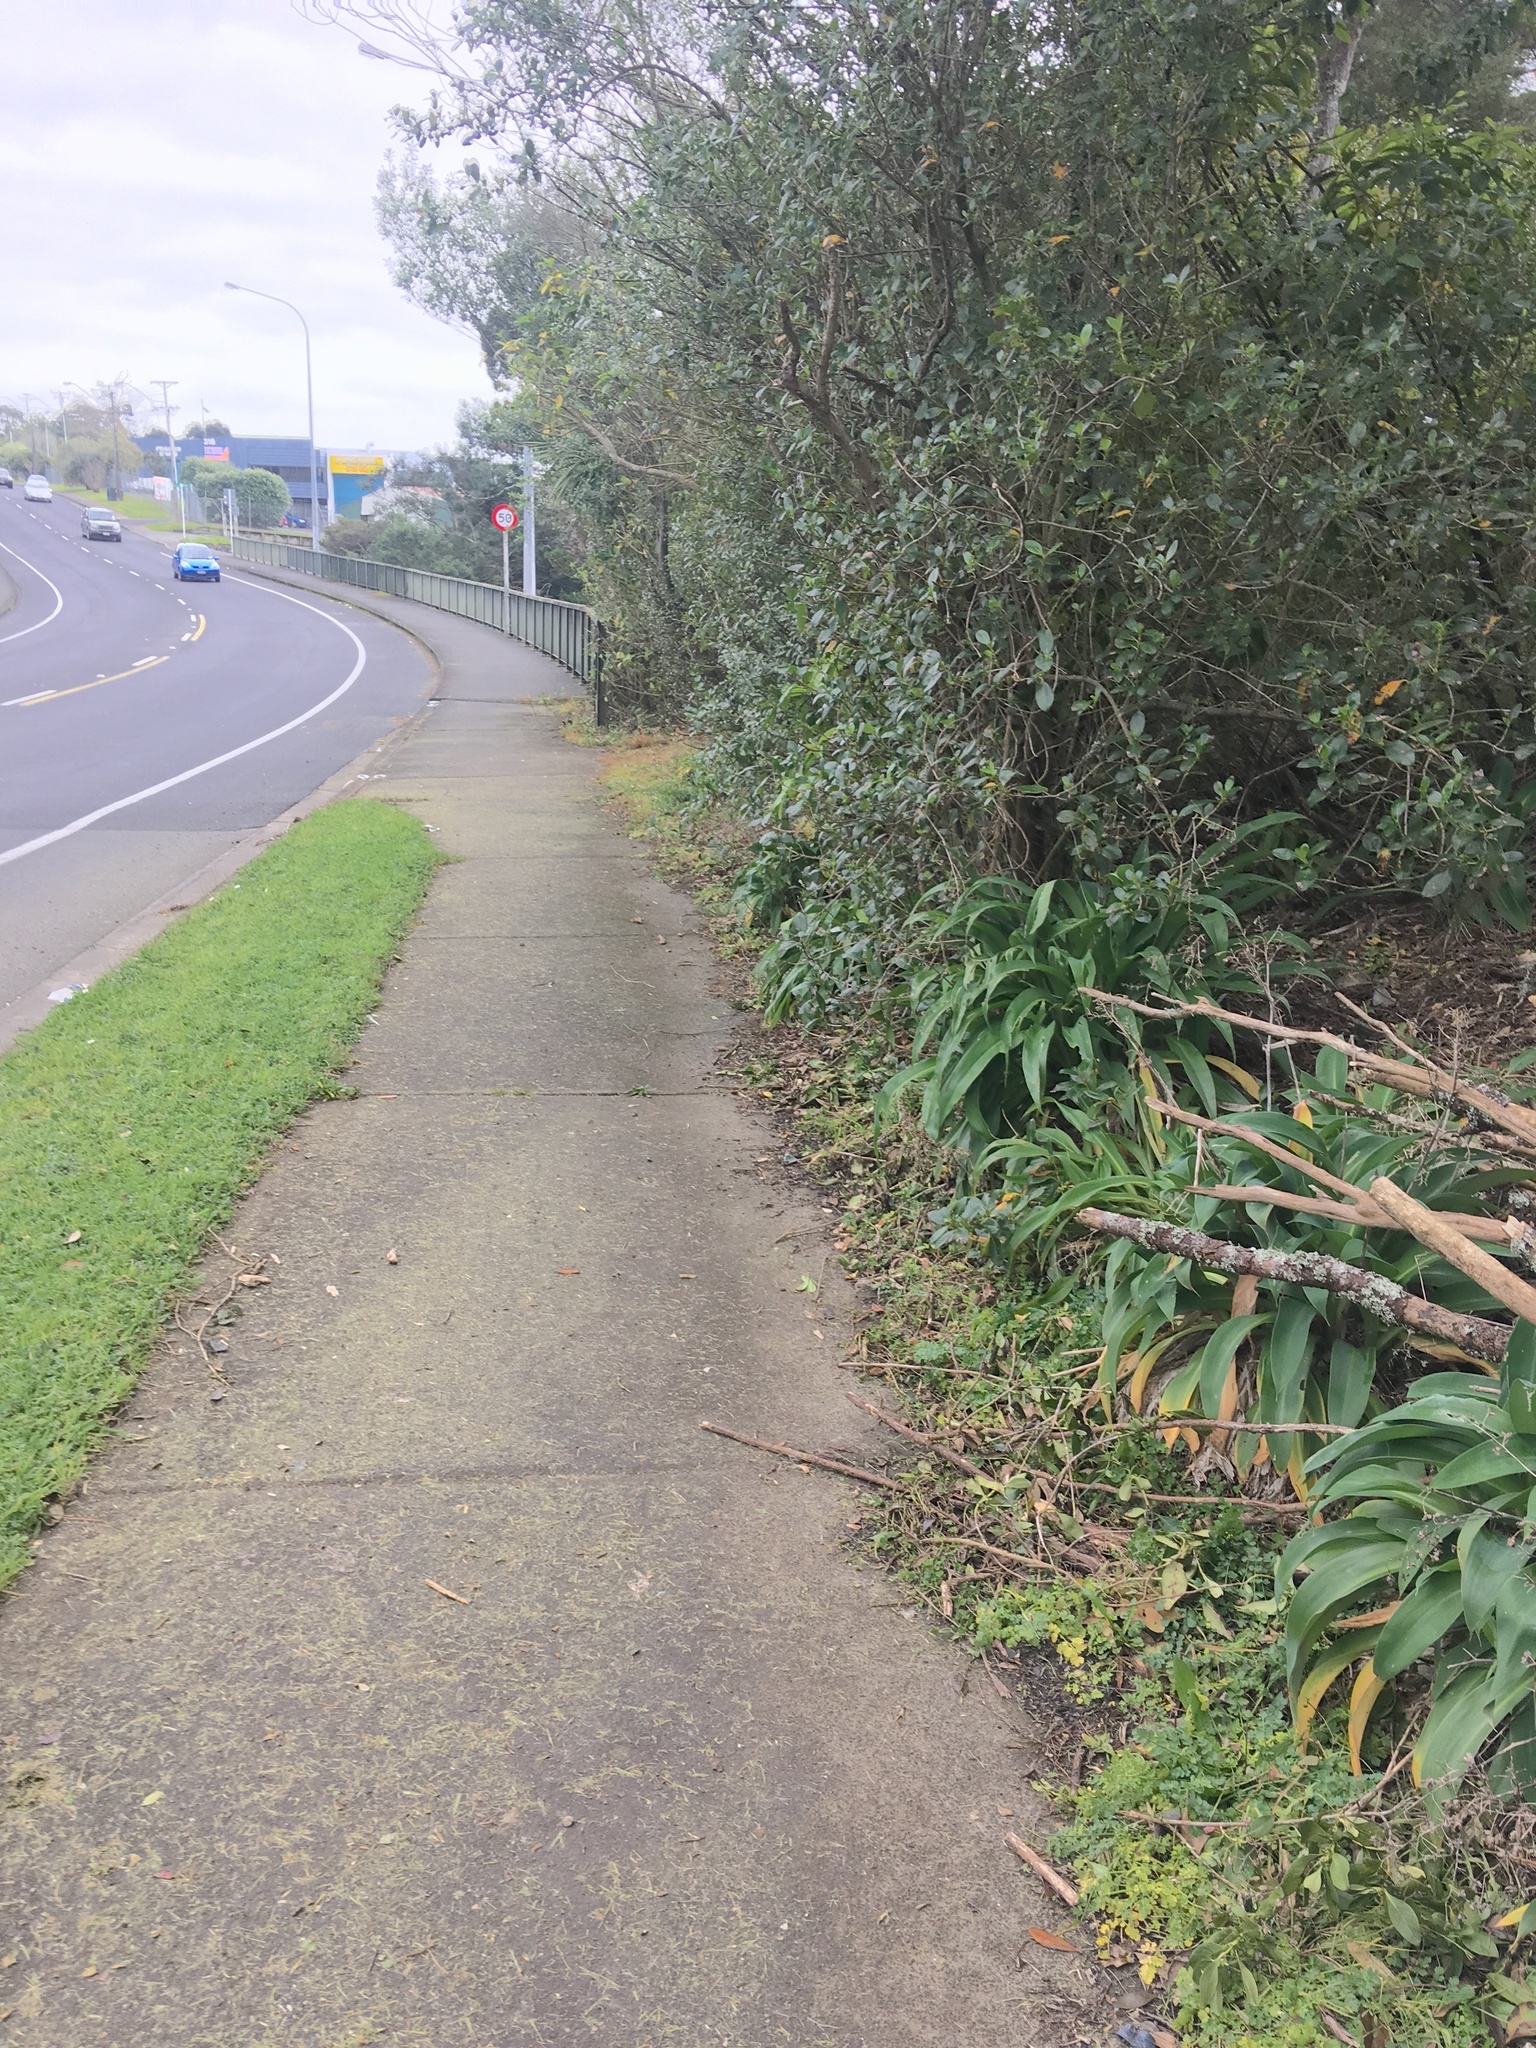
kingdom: Plantae
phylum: Tracheophyta
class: Liliopsida
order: Asparagales
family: Asparagaceae
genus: Arthropodium
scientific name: Arthropodium cirratum
